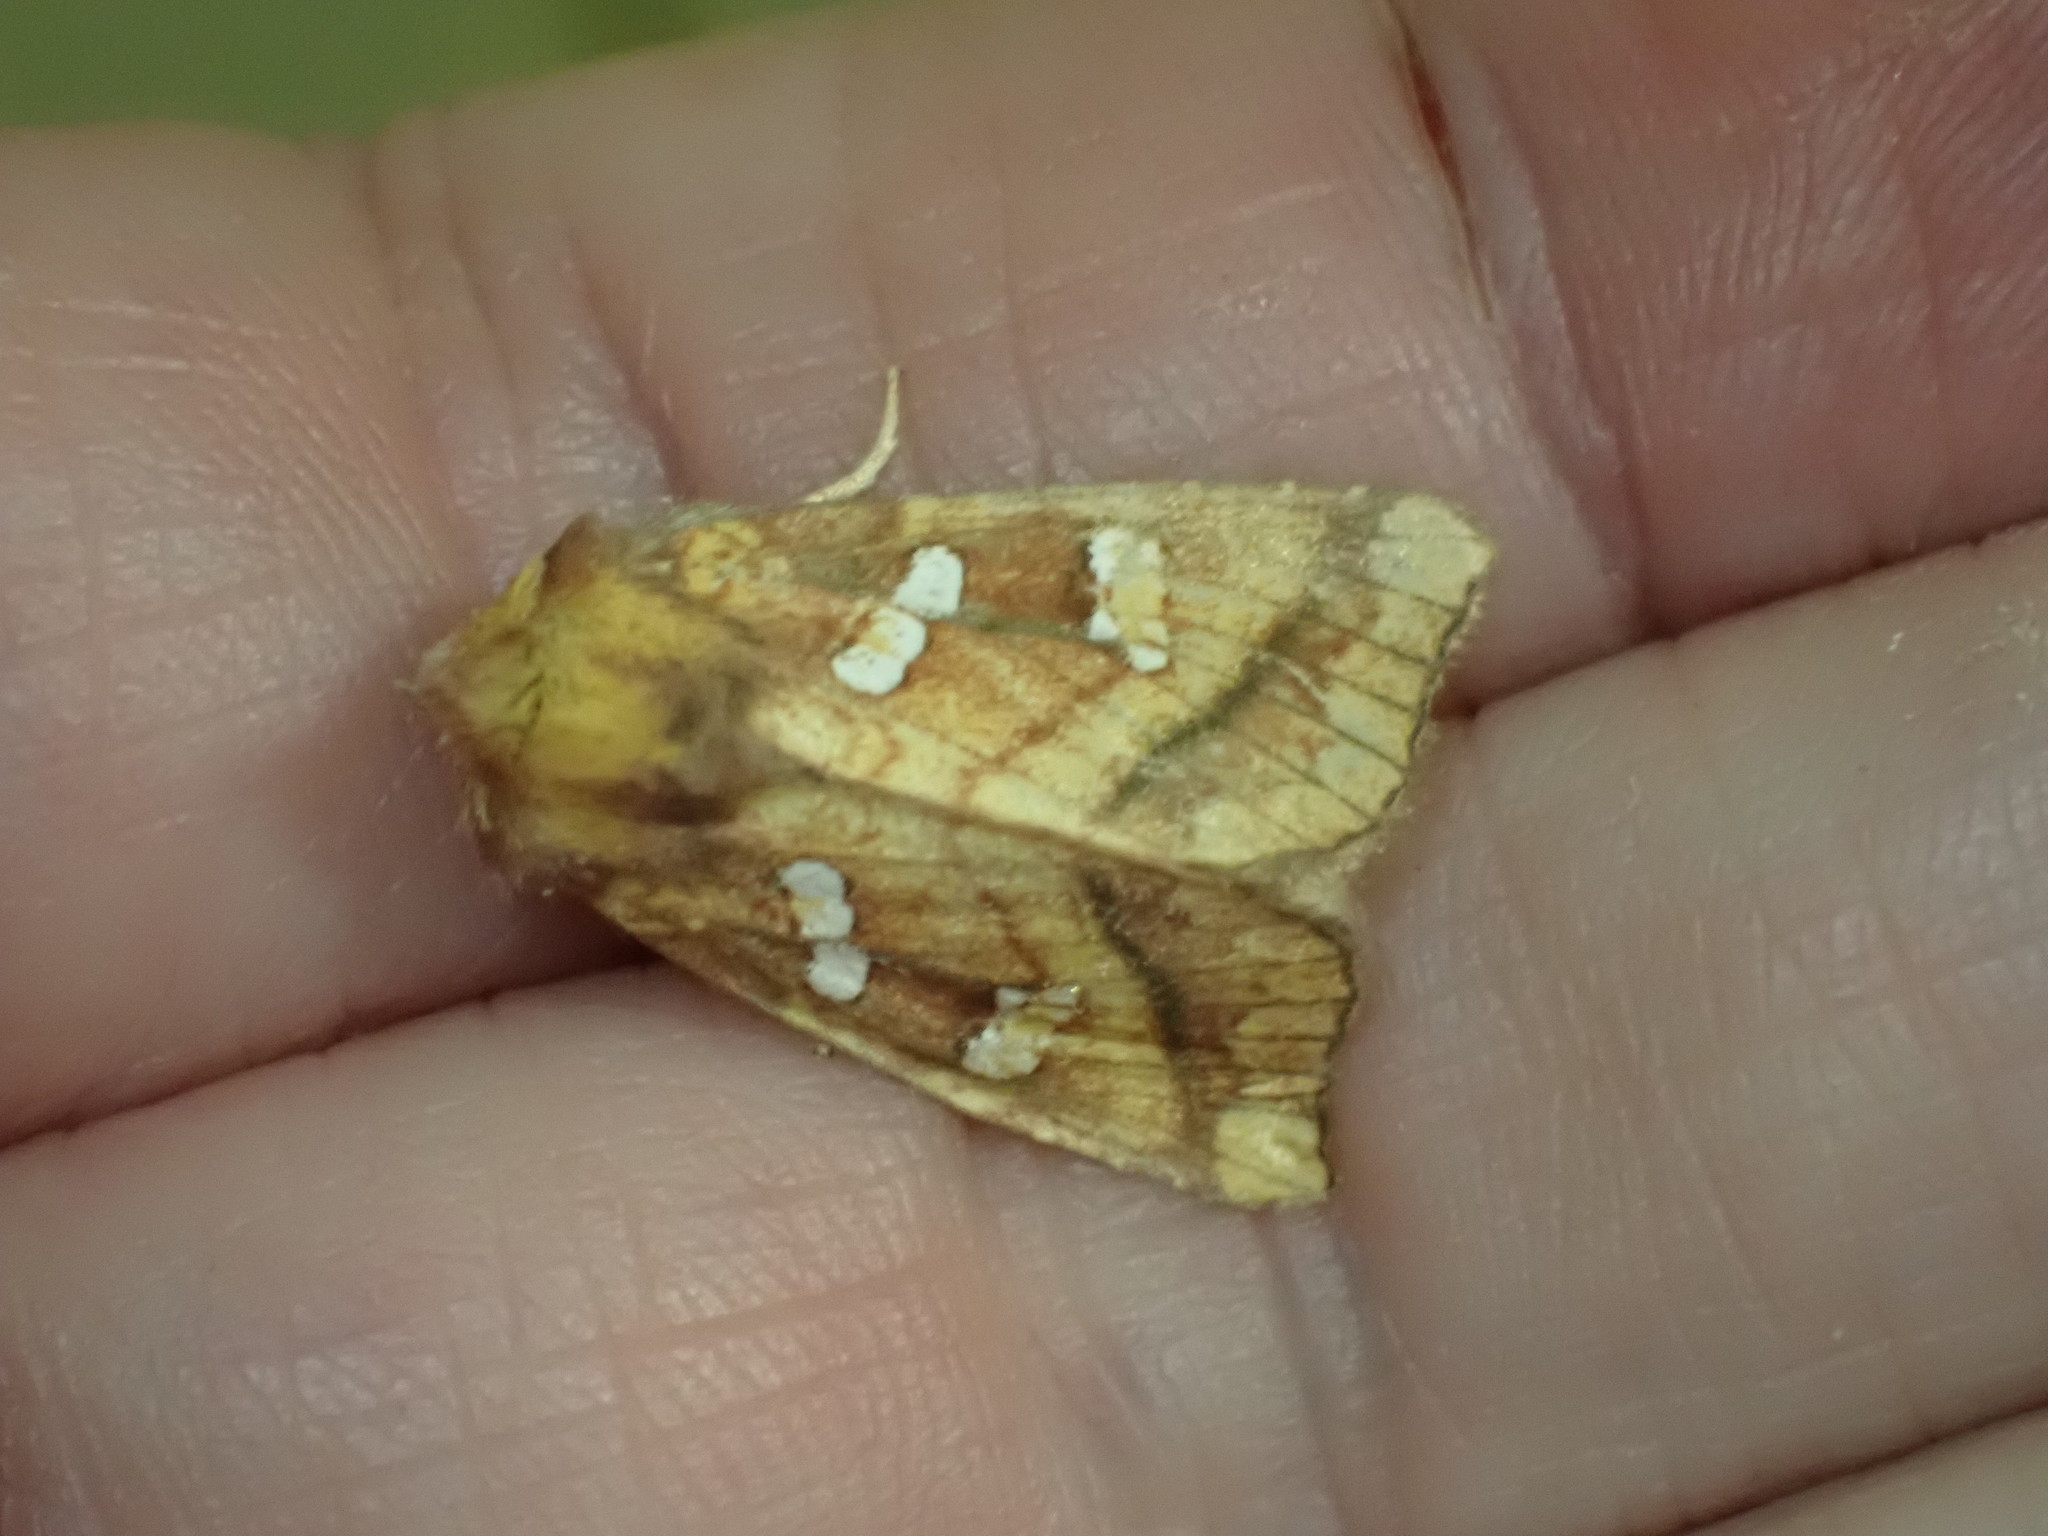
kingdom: Animalia
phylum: Arthropoda
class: Insecta
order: Lepidoptera
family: Noctuidae
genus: Papaipema
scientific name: Papaipema pterisii
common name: Bracken borer moth
